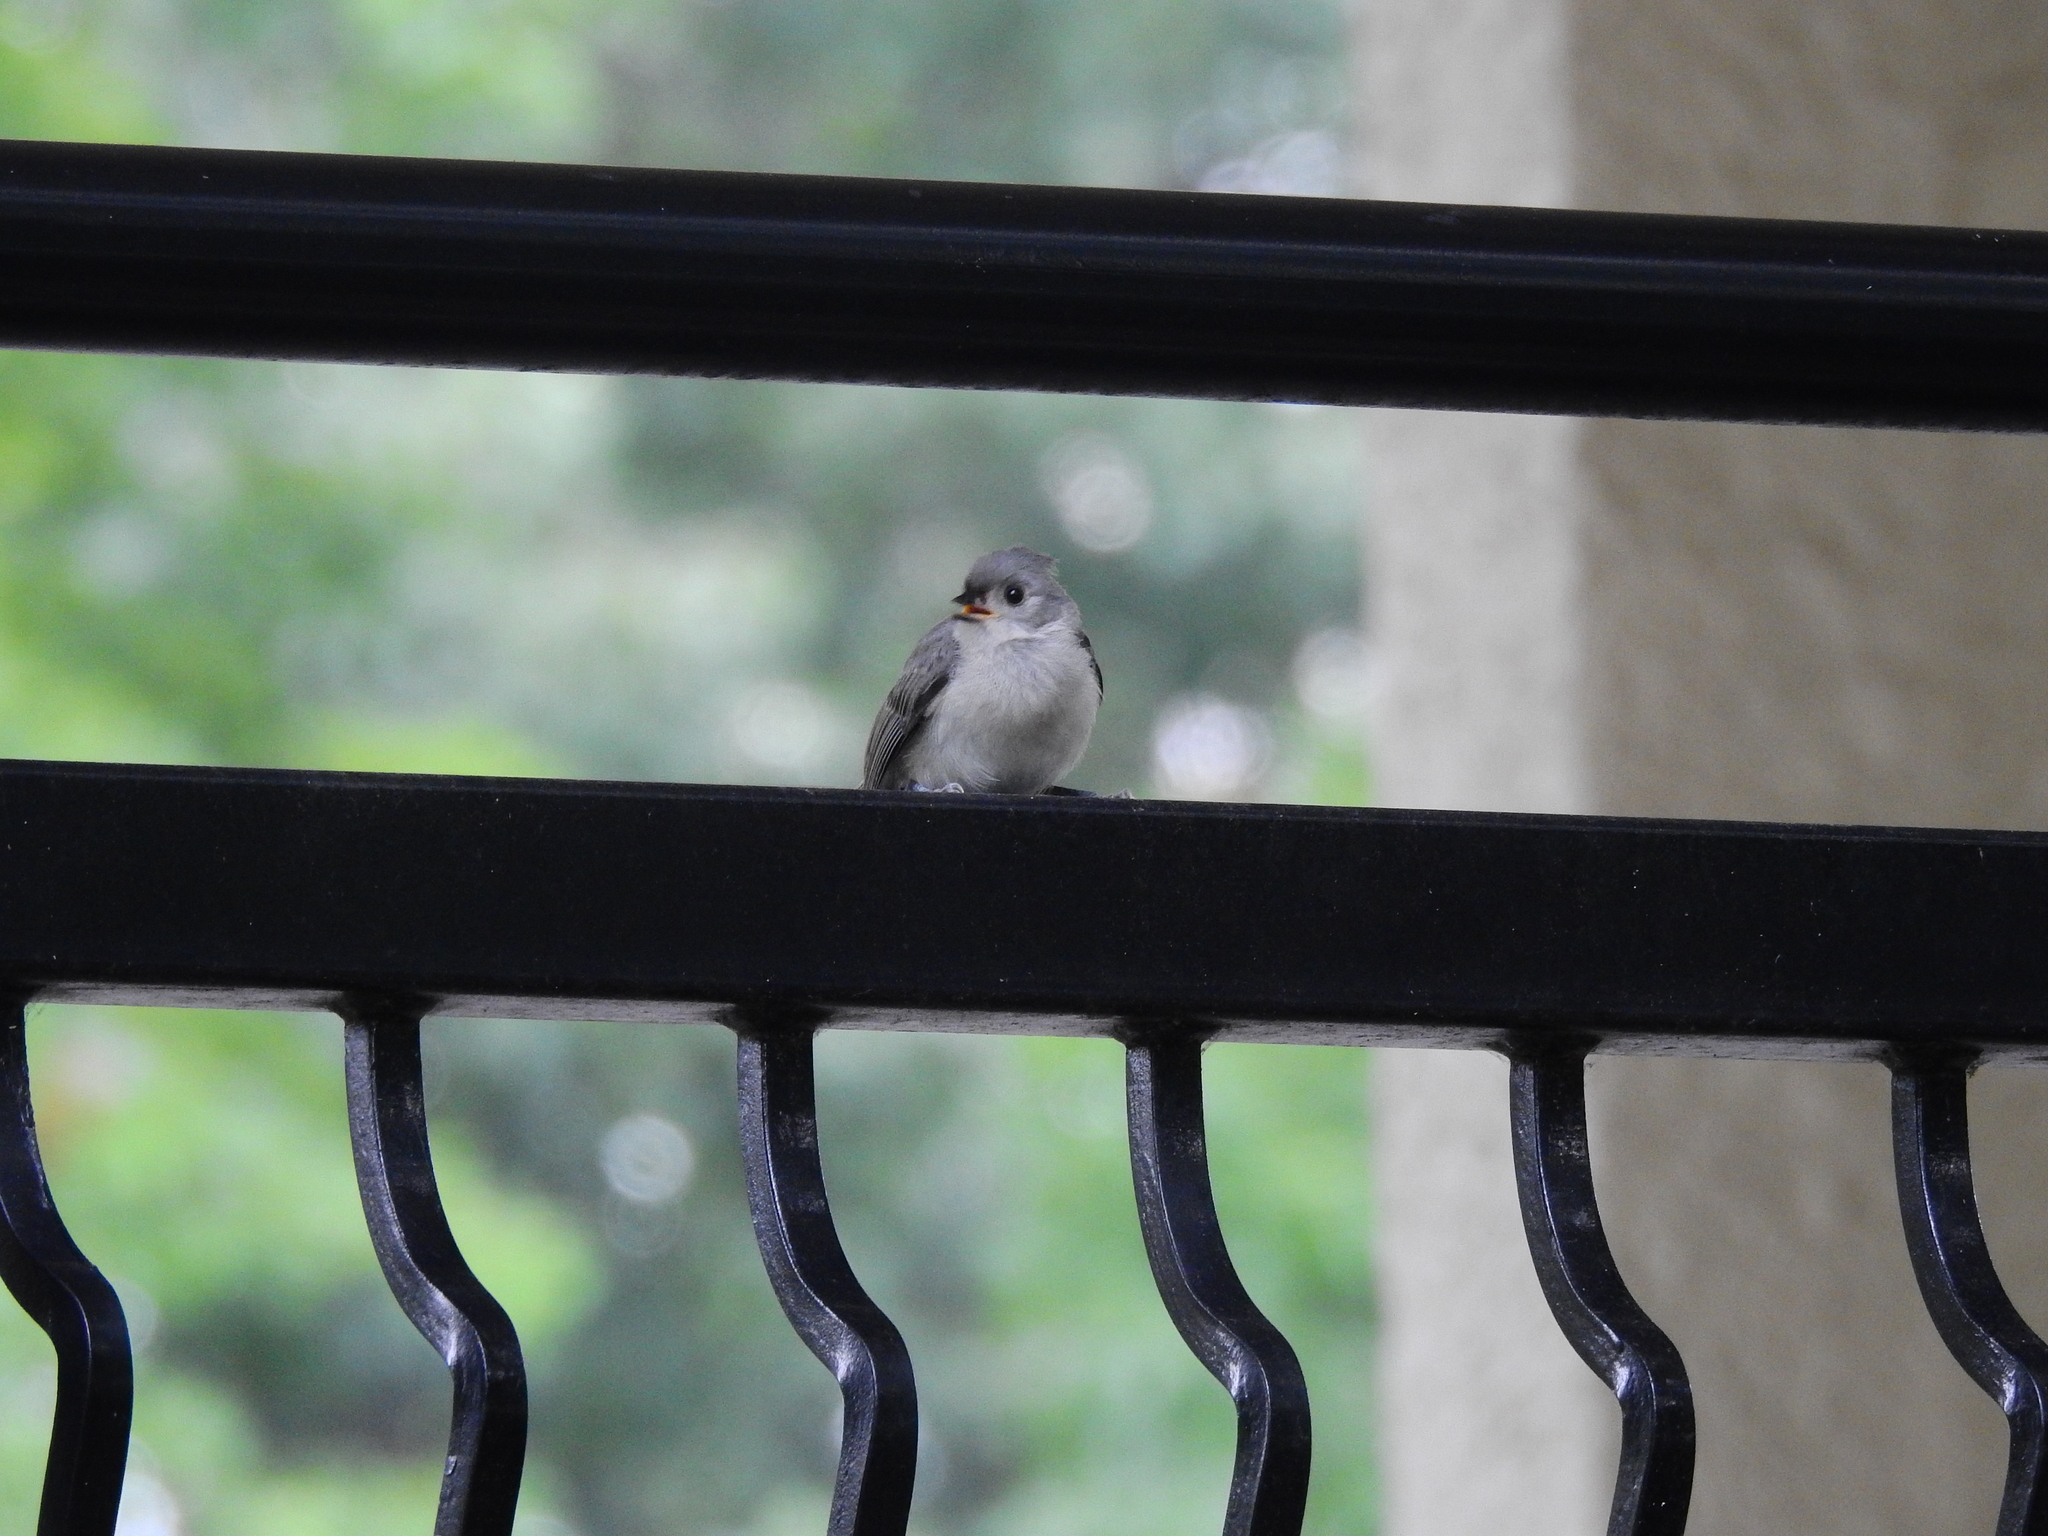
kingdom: Animalia
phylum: Chordata
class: Aves
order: Passeriformes
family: Paridae
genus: Baeolophus
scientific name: Baeolophus bicolor
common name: Tufted titmouse
